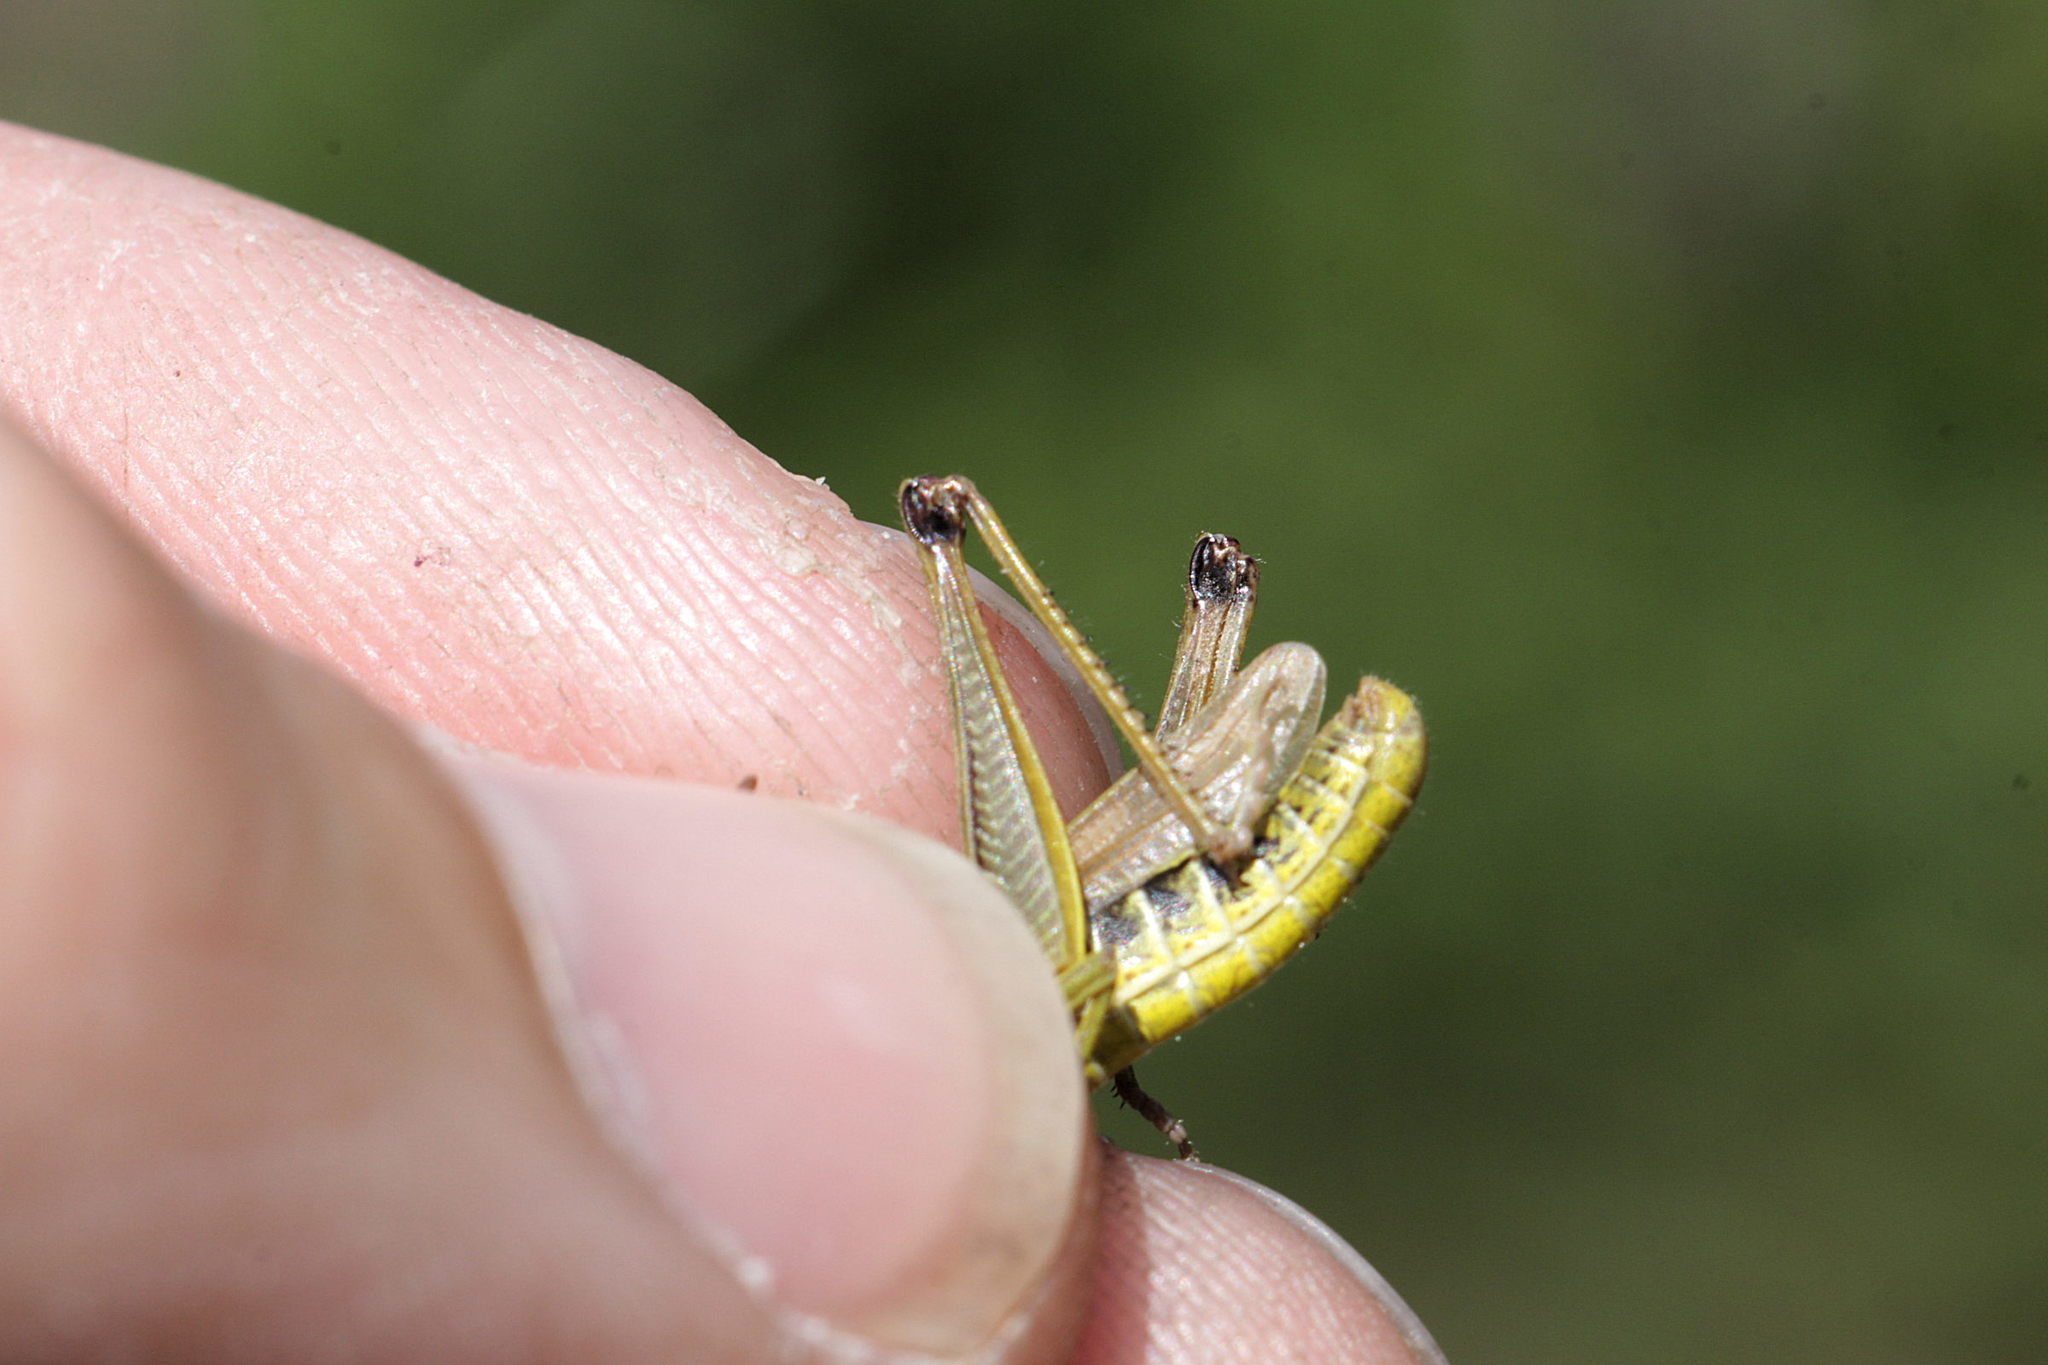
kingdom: Animalia
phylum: Arthropoda
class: Insecta
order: Orthoptera
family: Acrididae
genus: Pseudochorthippus
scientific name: Pseudochorthippus parallelus
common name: Meadow grasshopper
